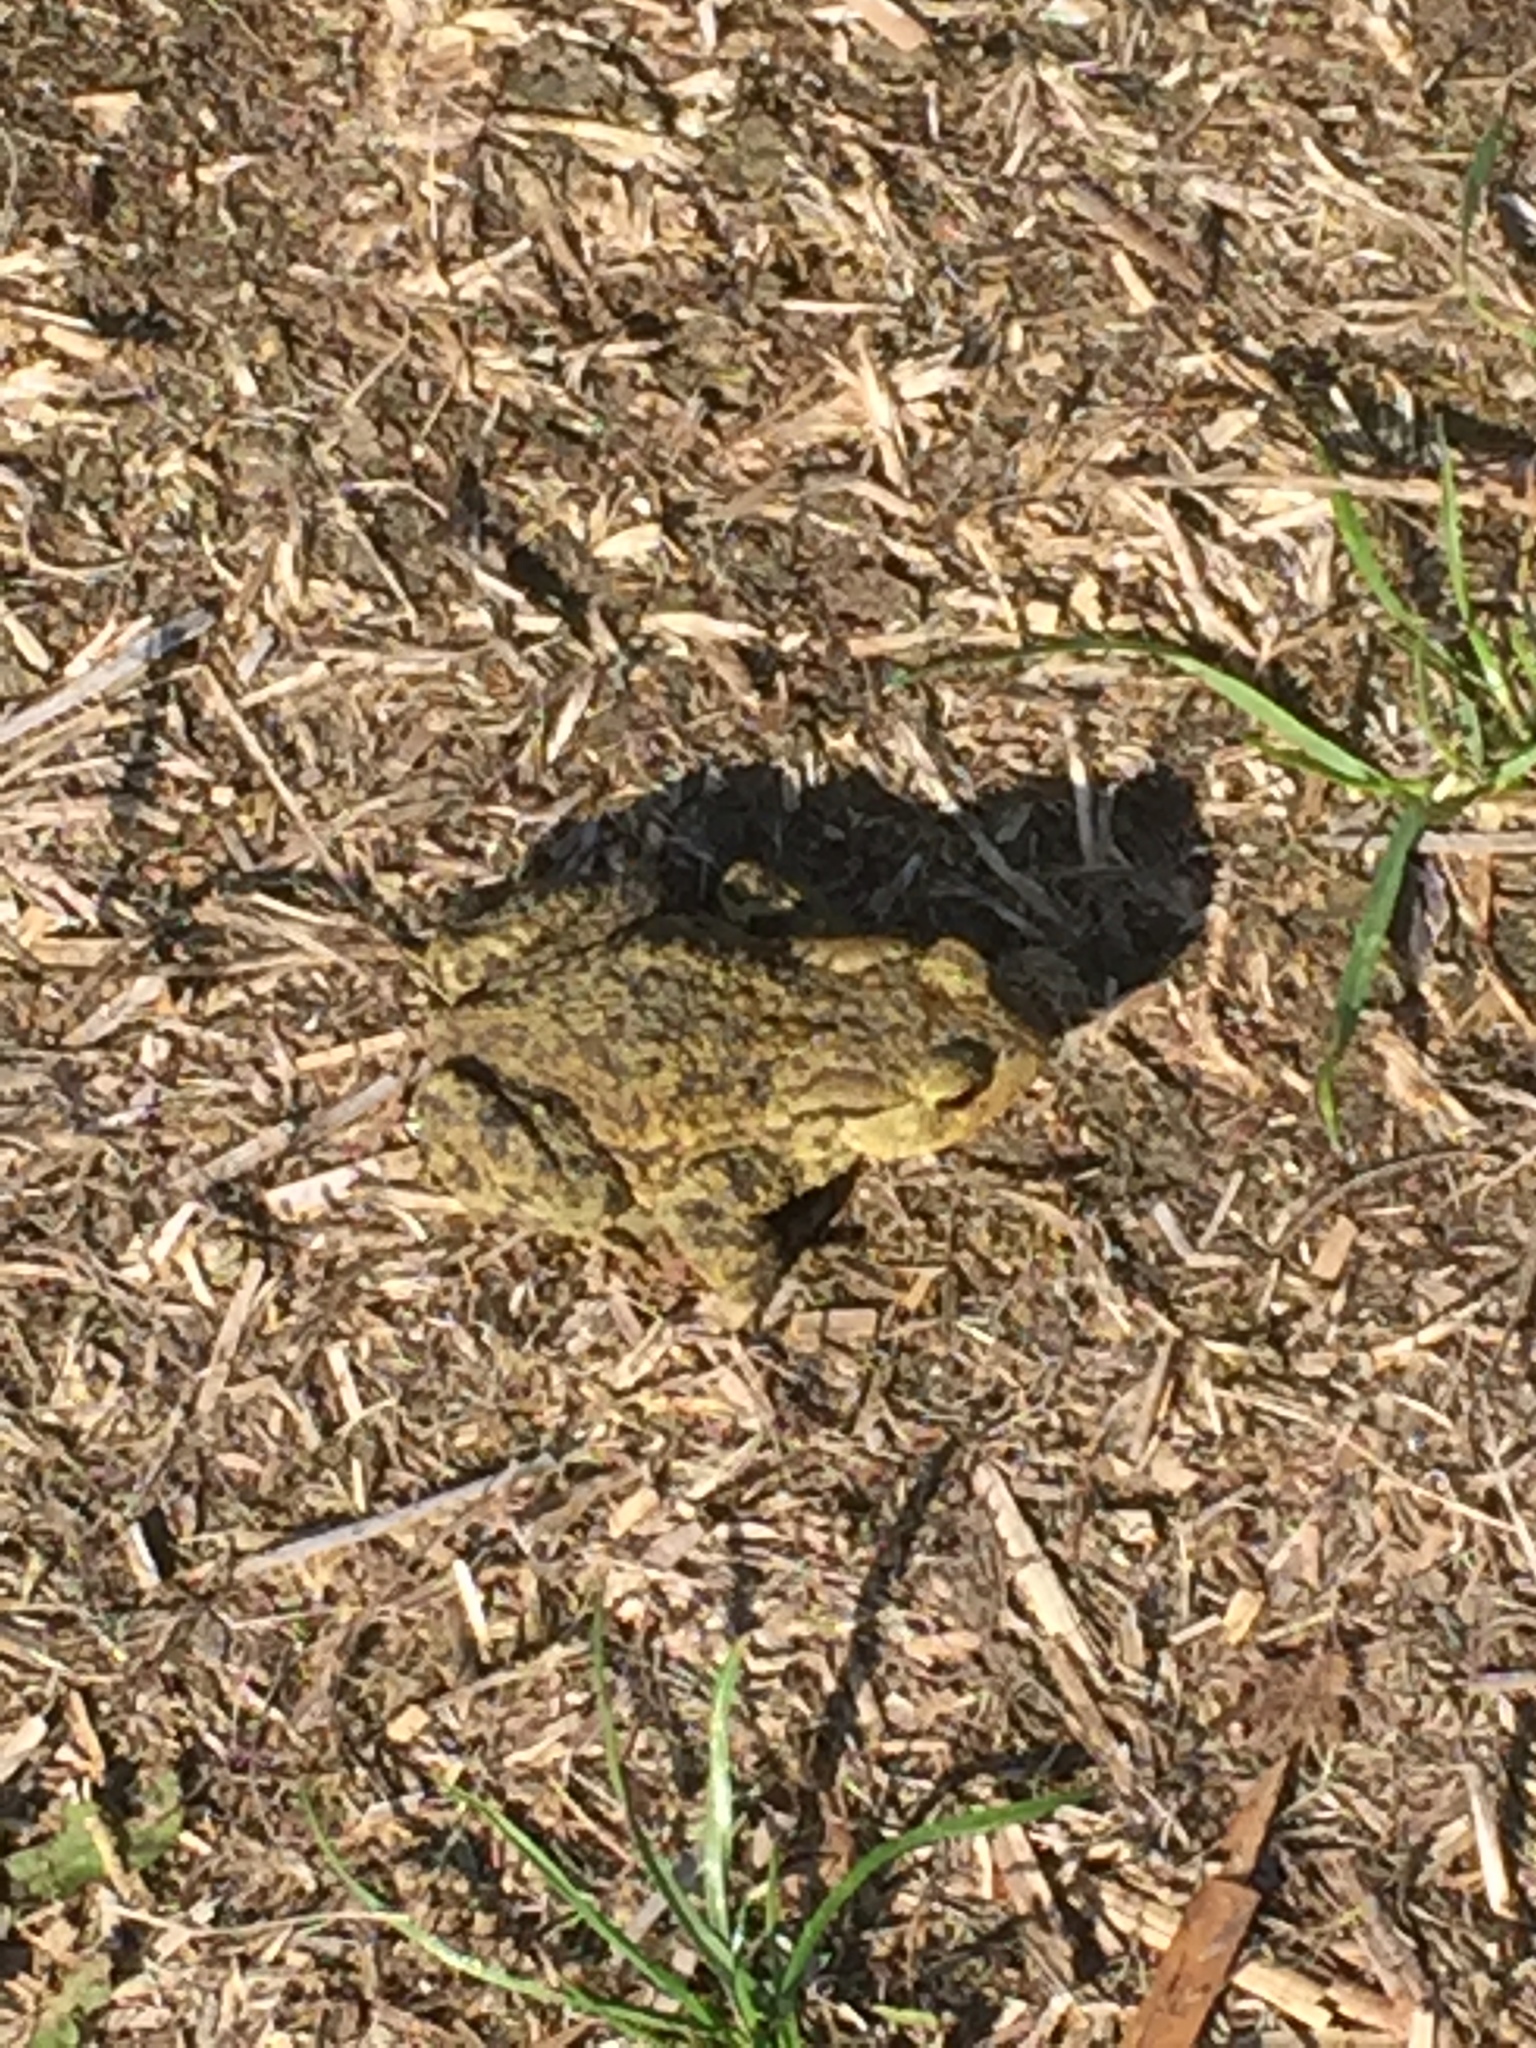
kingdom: Animalia
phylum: Chordata
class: Amphibia
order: Anura
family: Bufonidae
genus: Bufo
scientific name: Bufo bufo
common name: Common toad
